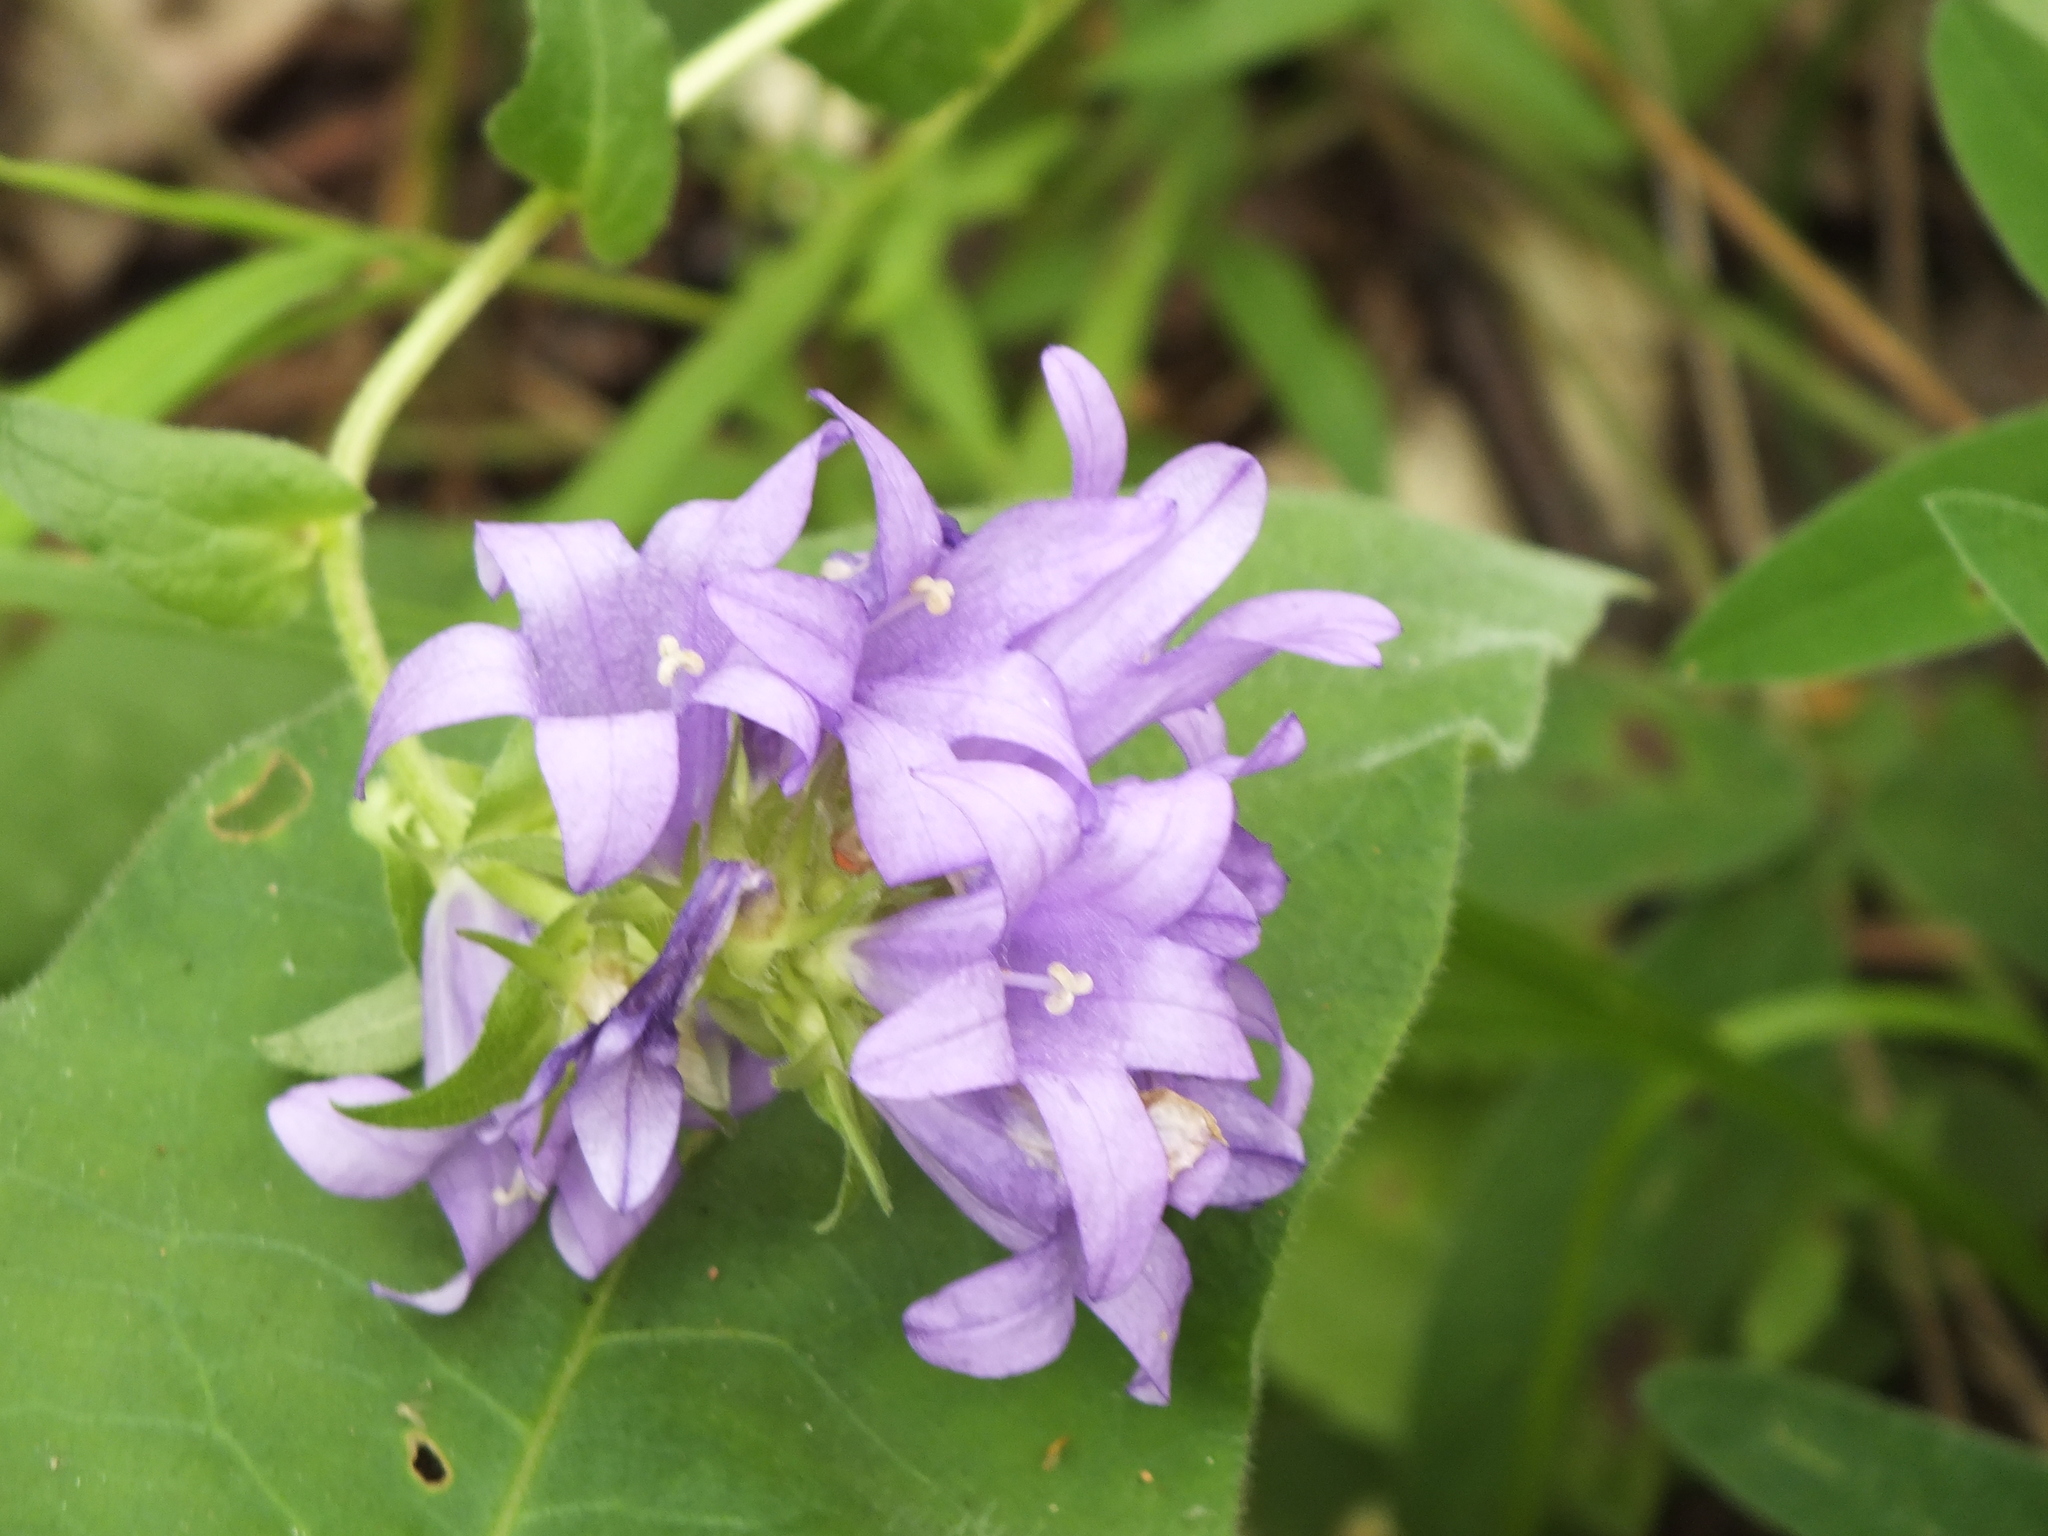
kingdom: Plantae
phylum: Tracheophyta
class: Magnoliopsida
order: Asterales
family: Campanulaceae
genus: Campanula
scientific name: Campanula glomerata
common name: Clustered bellflower
